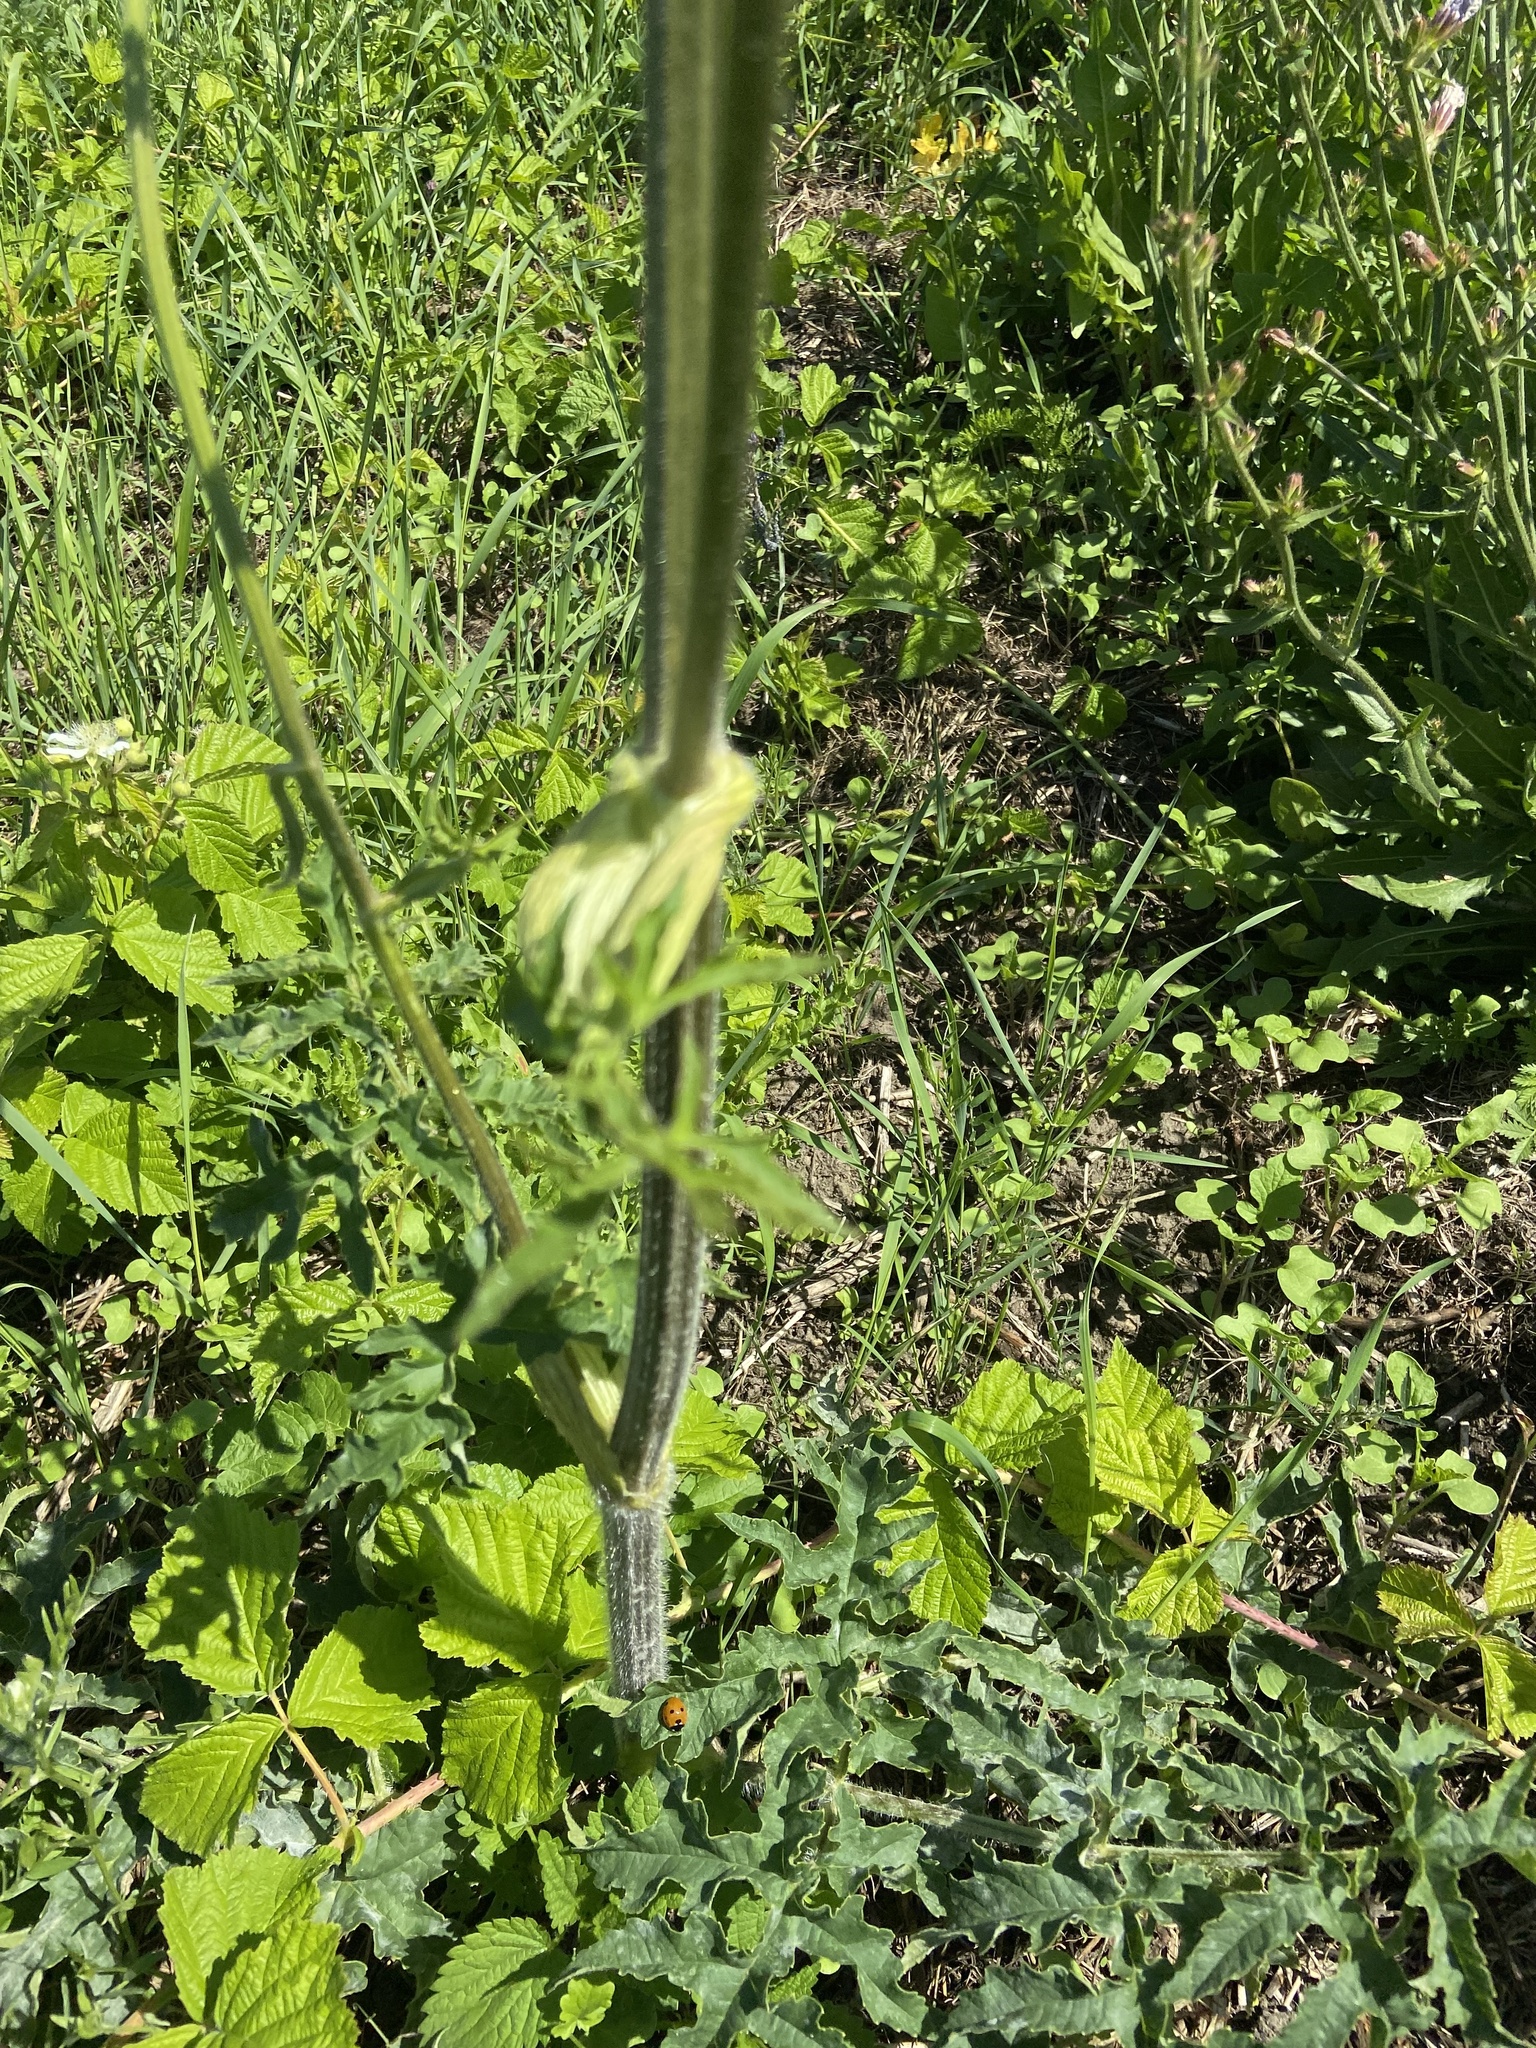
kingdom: Plantae
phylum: Tracheophyta
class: Magnoliopsida
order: Apiales
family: Apiaceae
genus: Heracleum
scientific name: Heracleum sphondylium
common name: Hogweed
